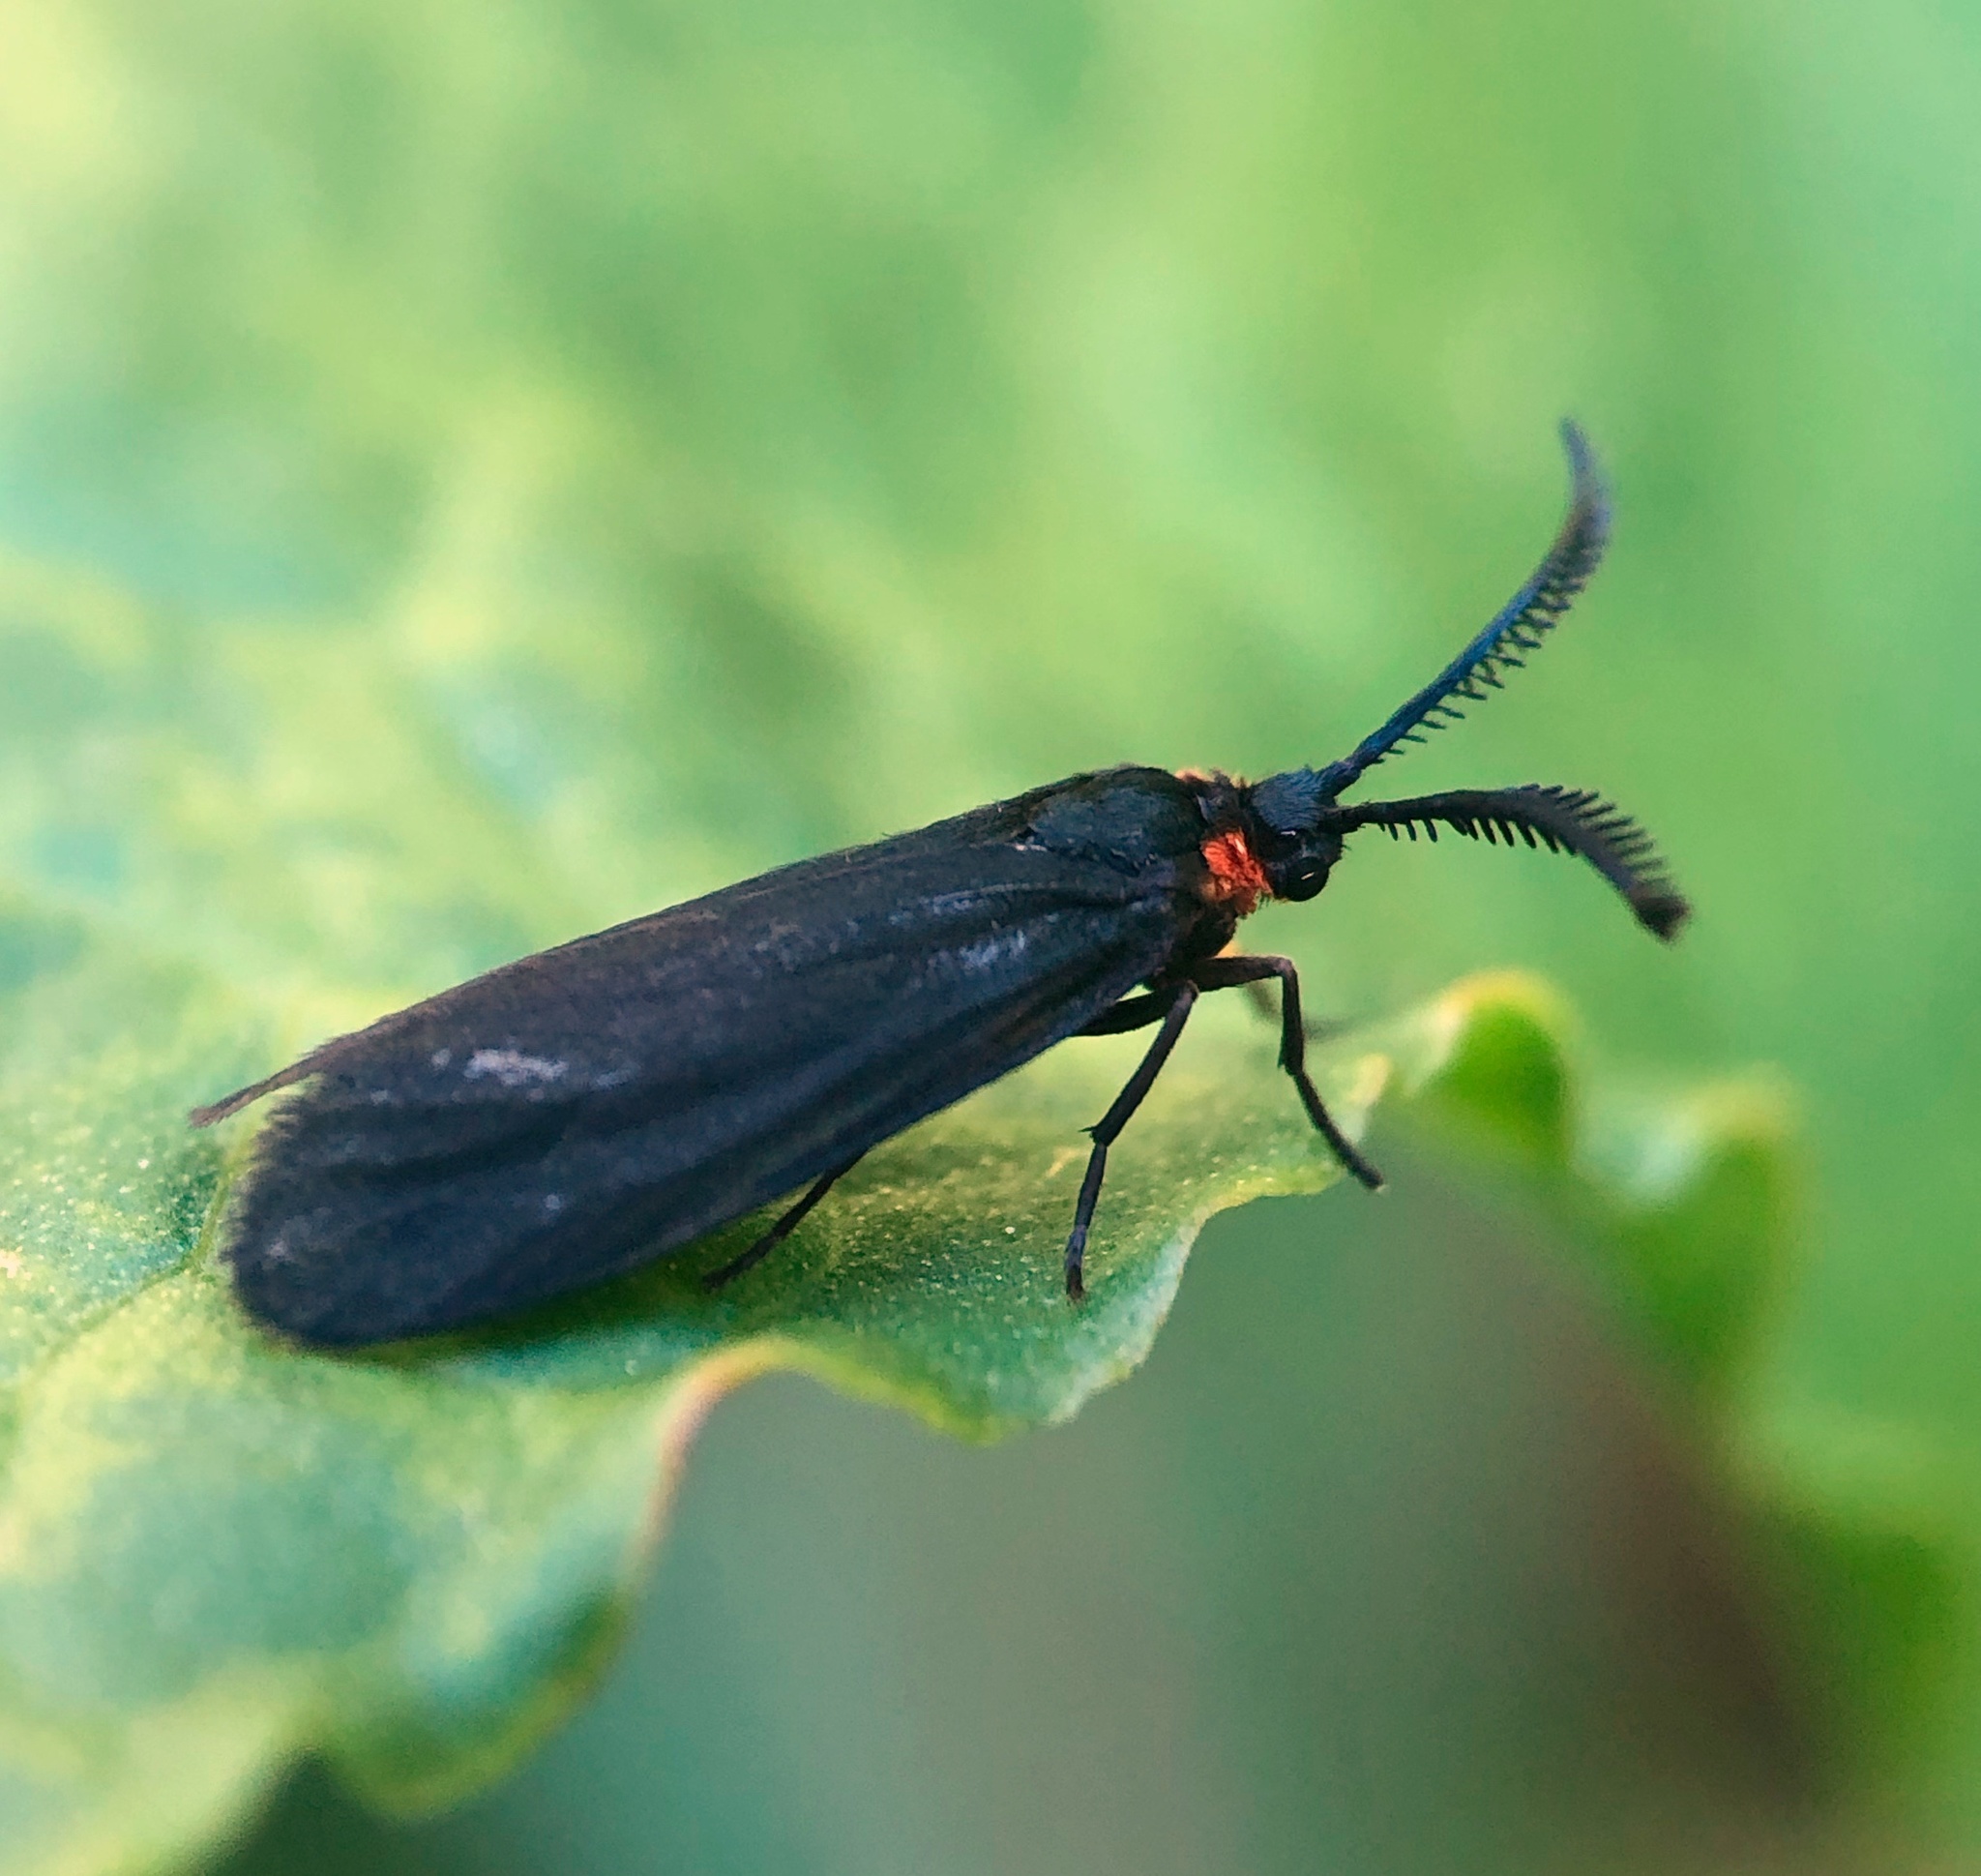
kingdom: Animalia
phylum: Arthropoda
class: Insecta
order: Lepidoptera
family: Zygaenidae
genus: Acoloithus
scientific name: Acoloithus falsarius
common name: Clemens' false skeletonizer
